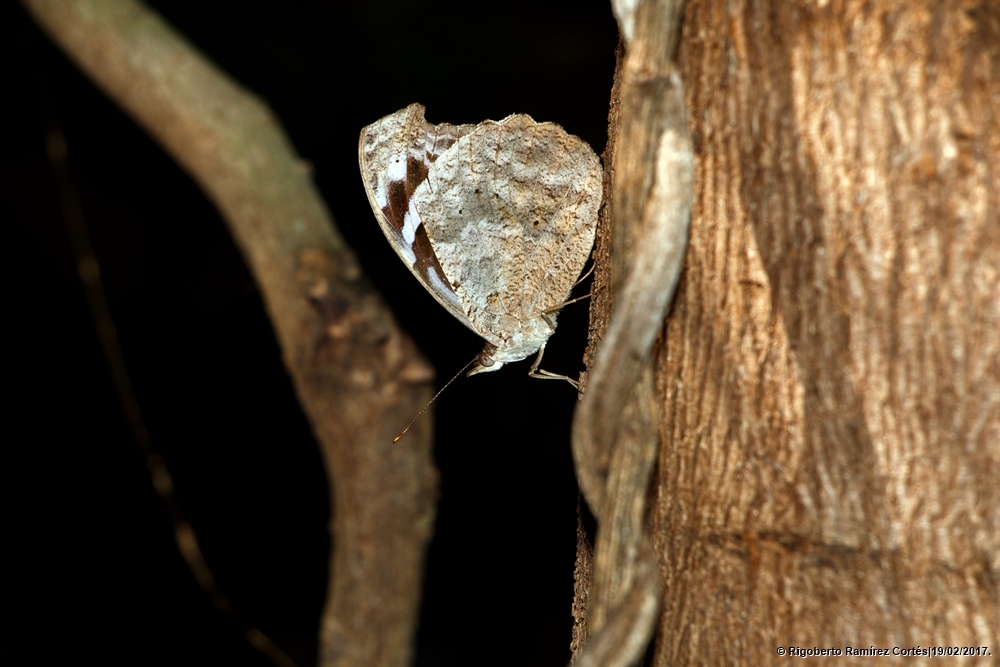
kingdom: Animalia
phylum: Arthropoda
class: Insecta
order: Lepidoptera
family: Nymphalidae
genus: Myscelia
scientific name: Myscelia cyaniris
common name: Whitened bluewing
